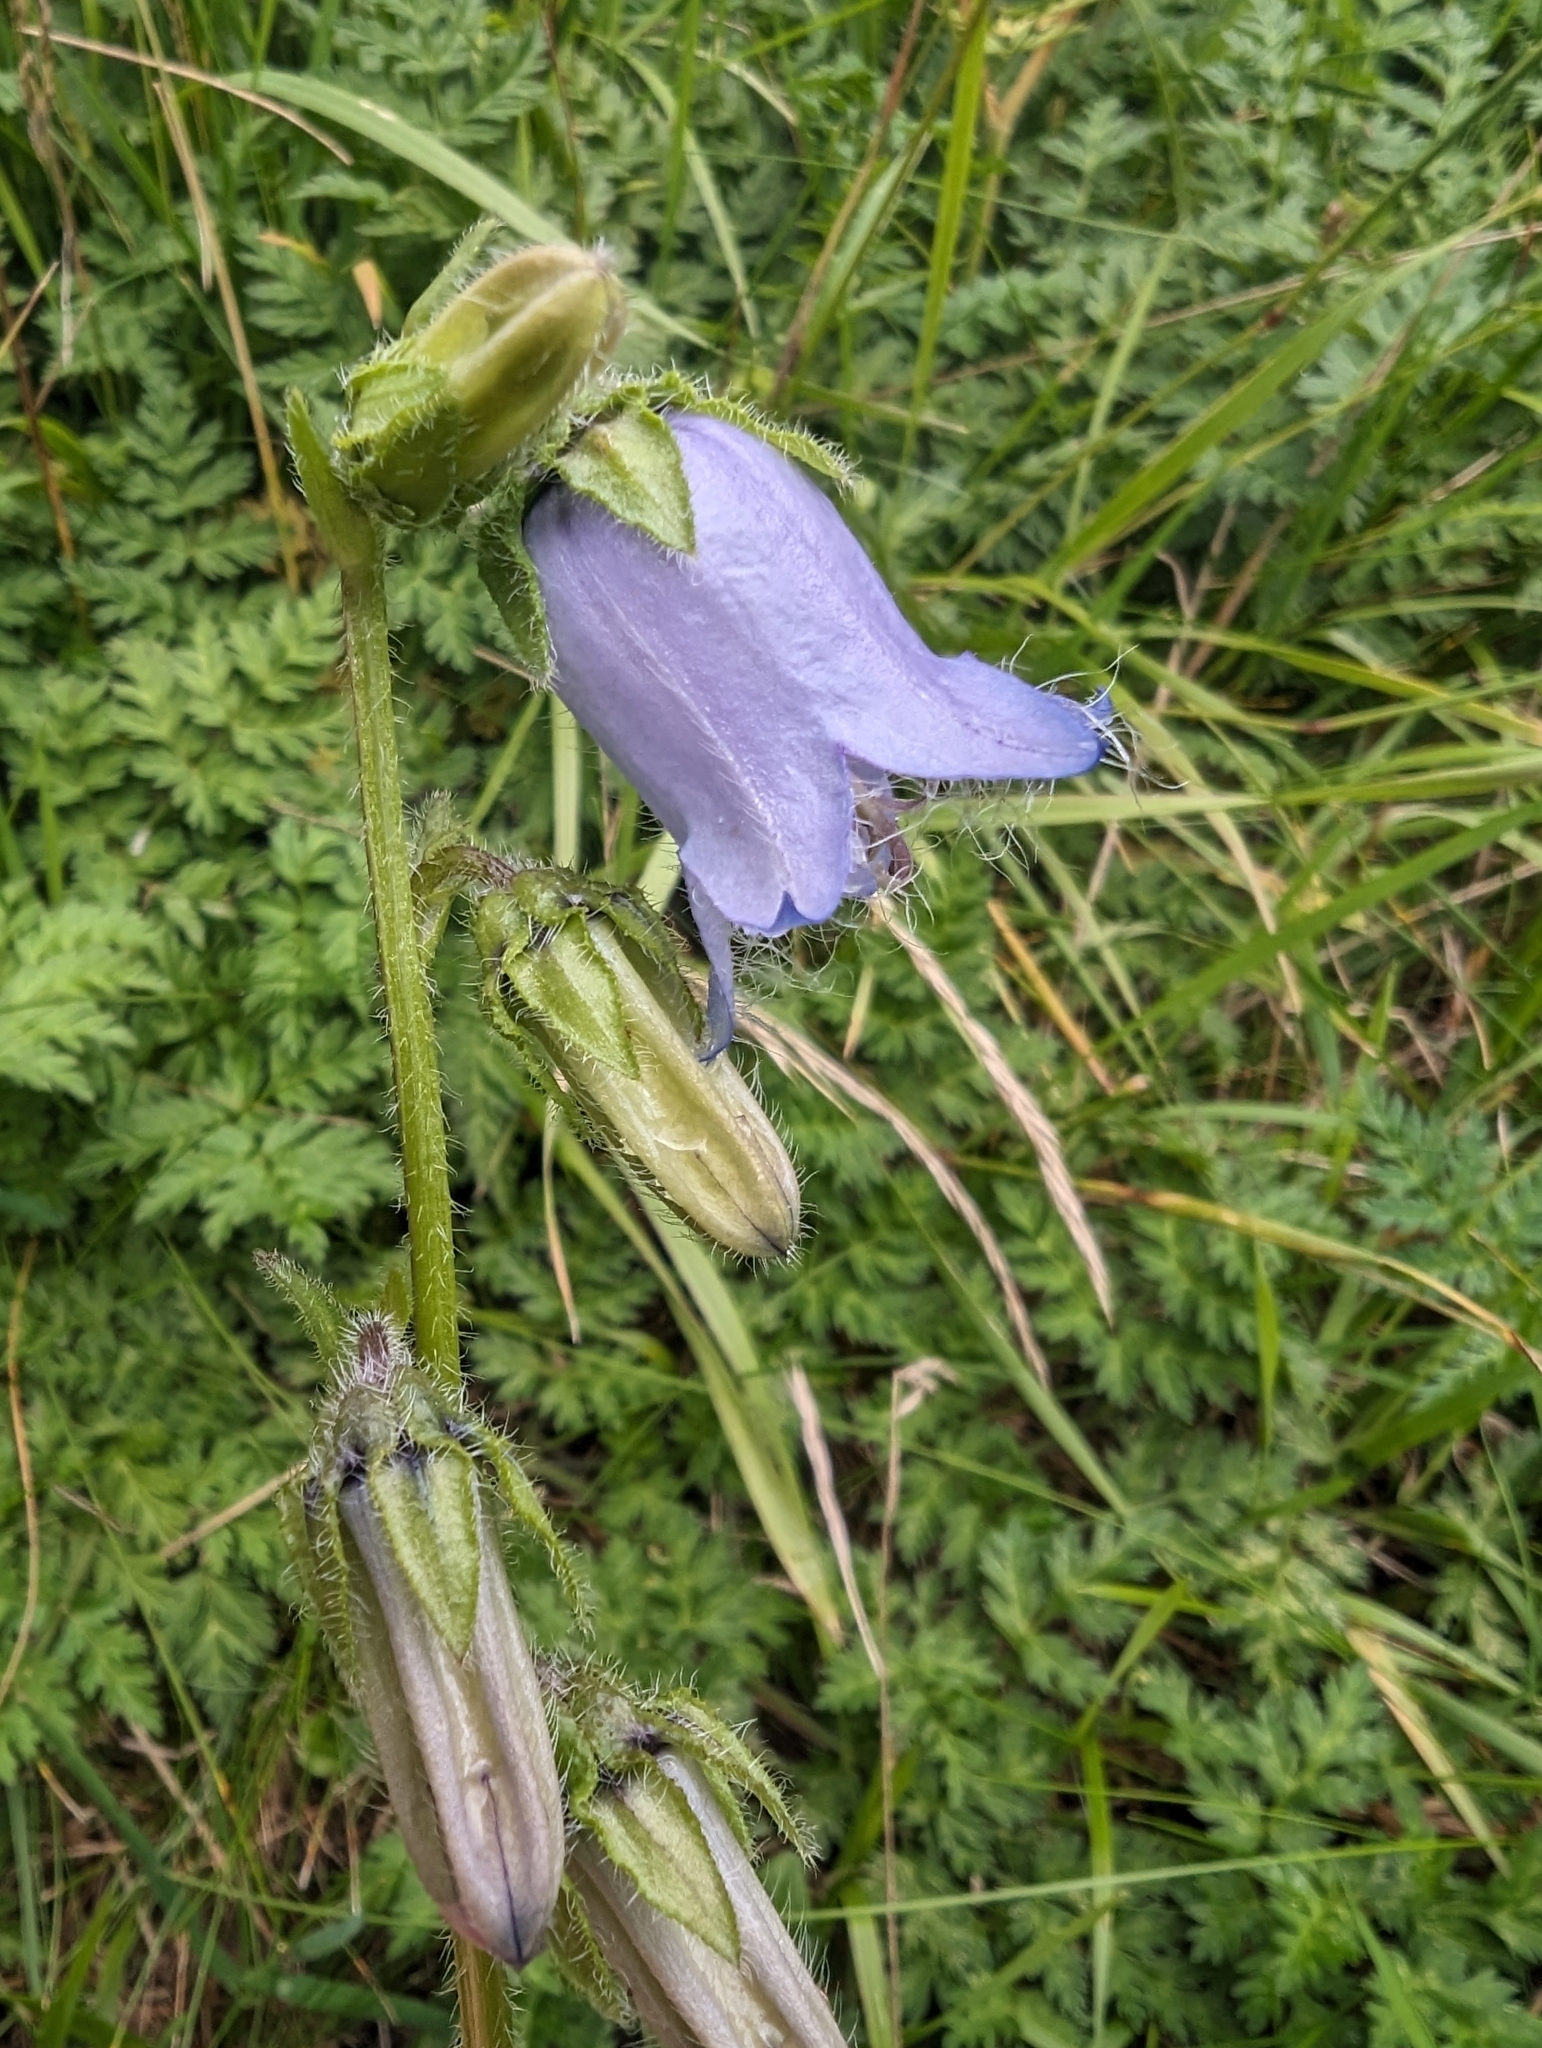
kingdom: Plantae
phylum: Tracheophyta
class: Magnoliopsida
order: Asterales
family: Campanulaceae
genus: Campanula
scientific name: Campanula barbata
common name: Bearded bellflower
